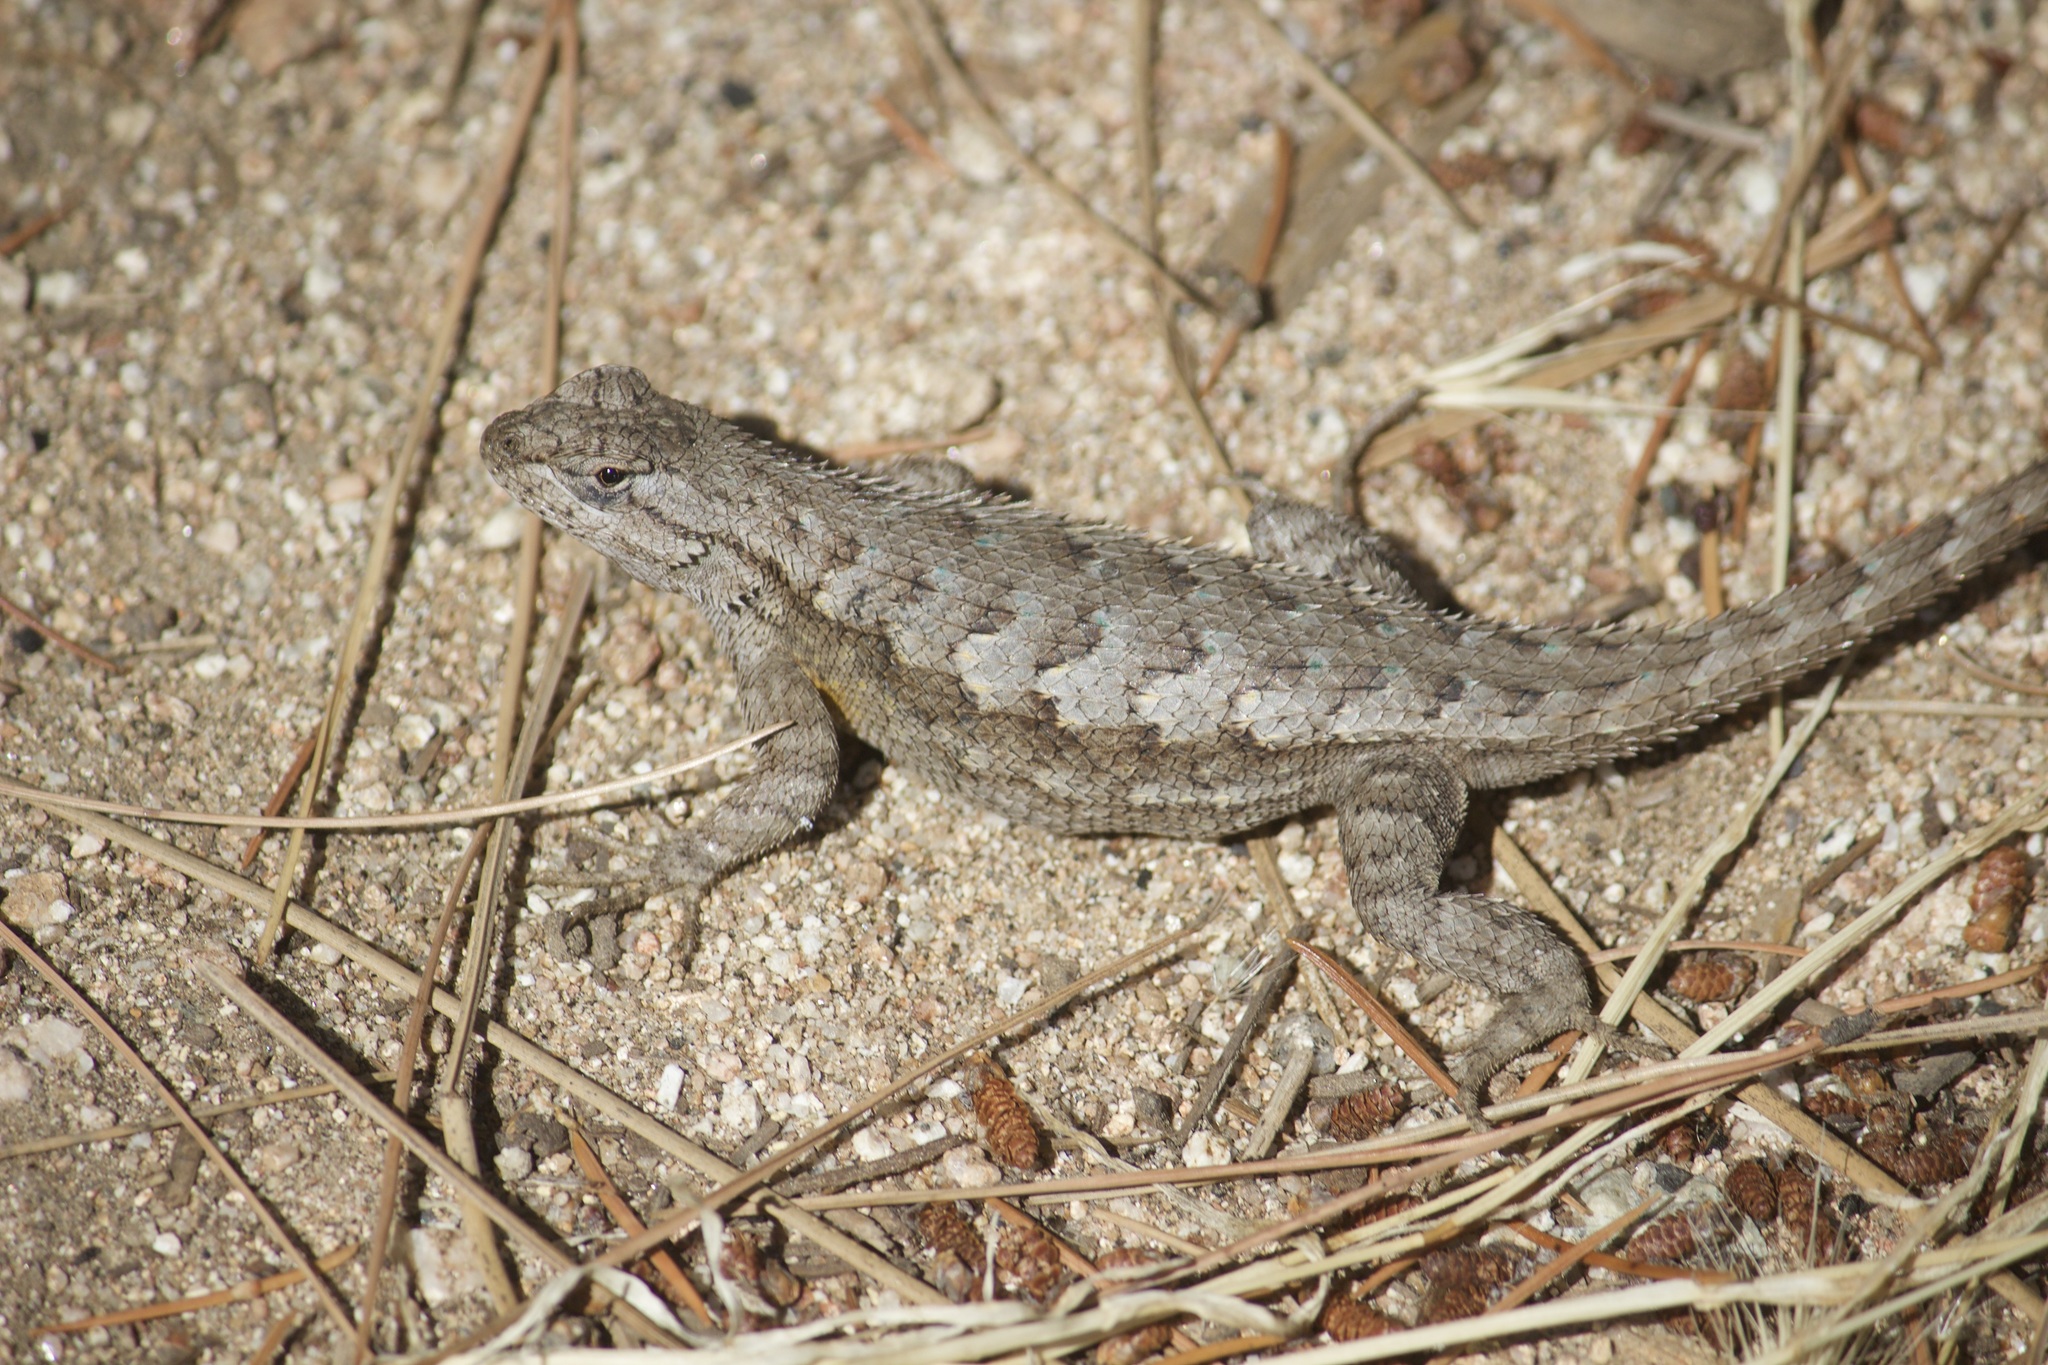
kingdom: Animalia
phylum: Chordata
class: Squamata
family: Phrynosomatidae
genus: Sceloporus
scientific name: Sceloporus occidentalis
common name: Western fence lizard
